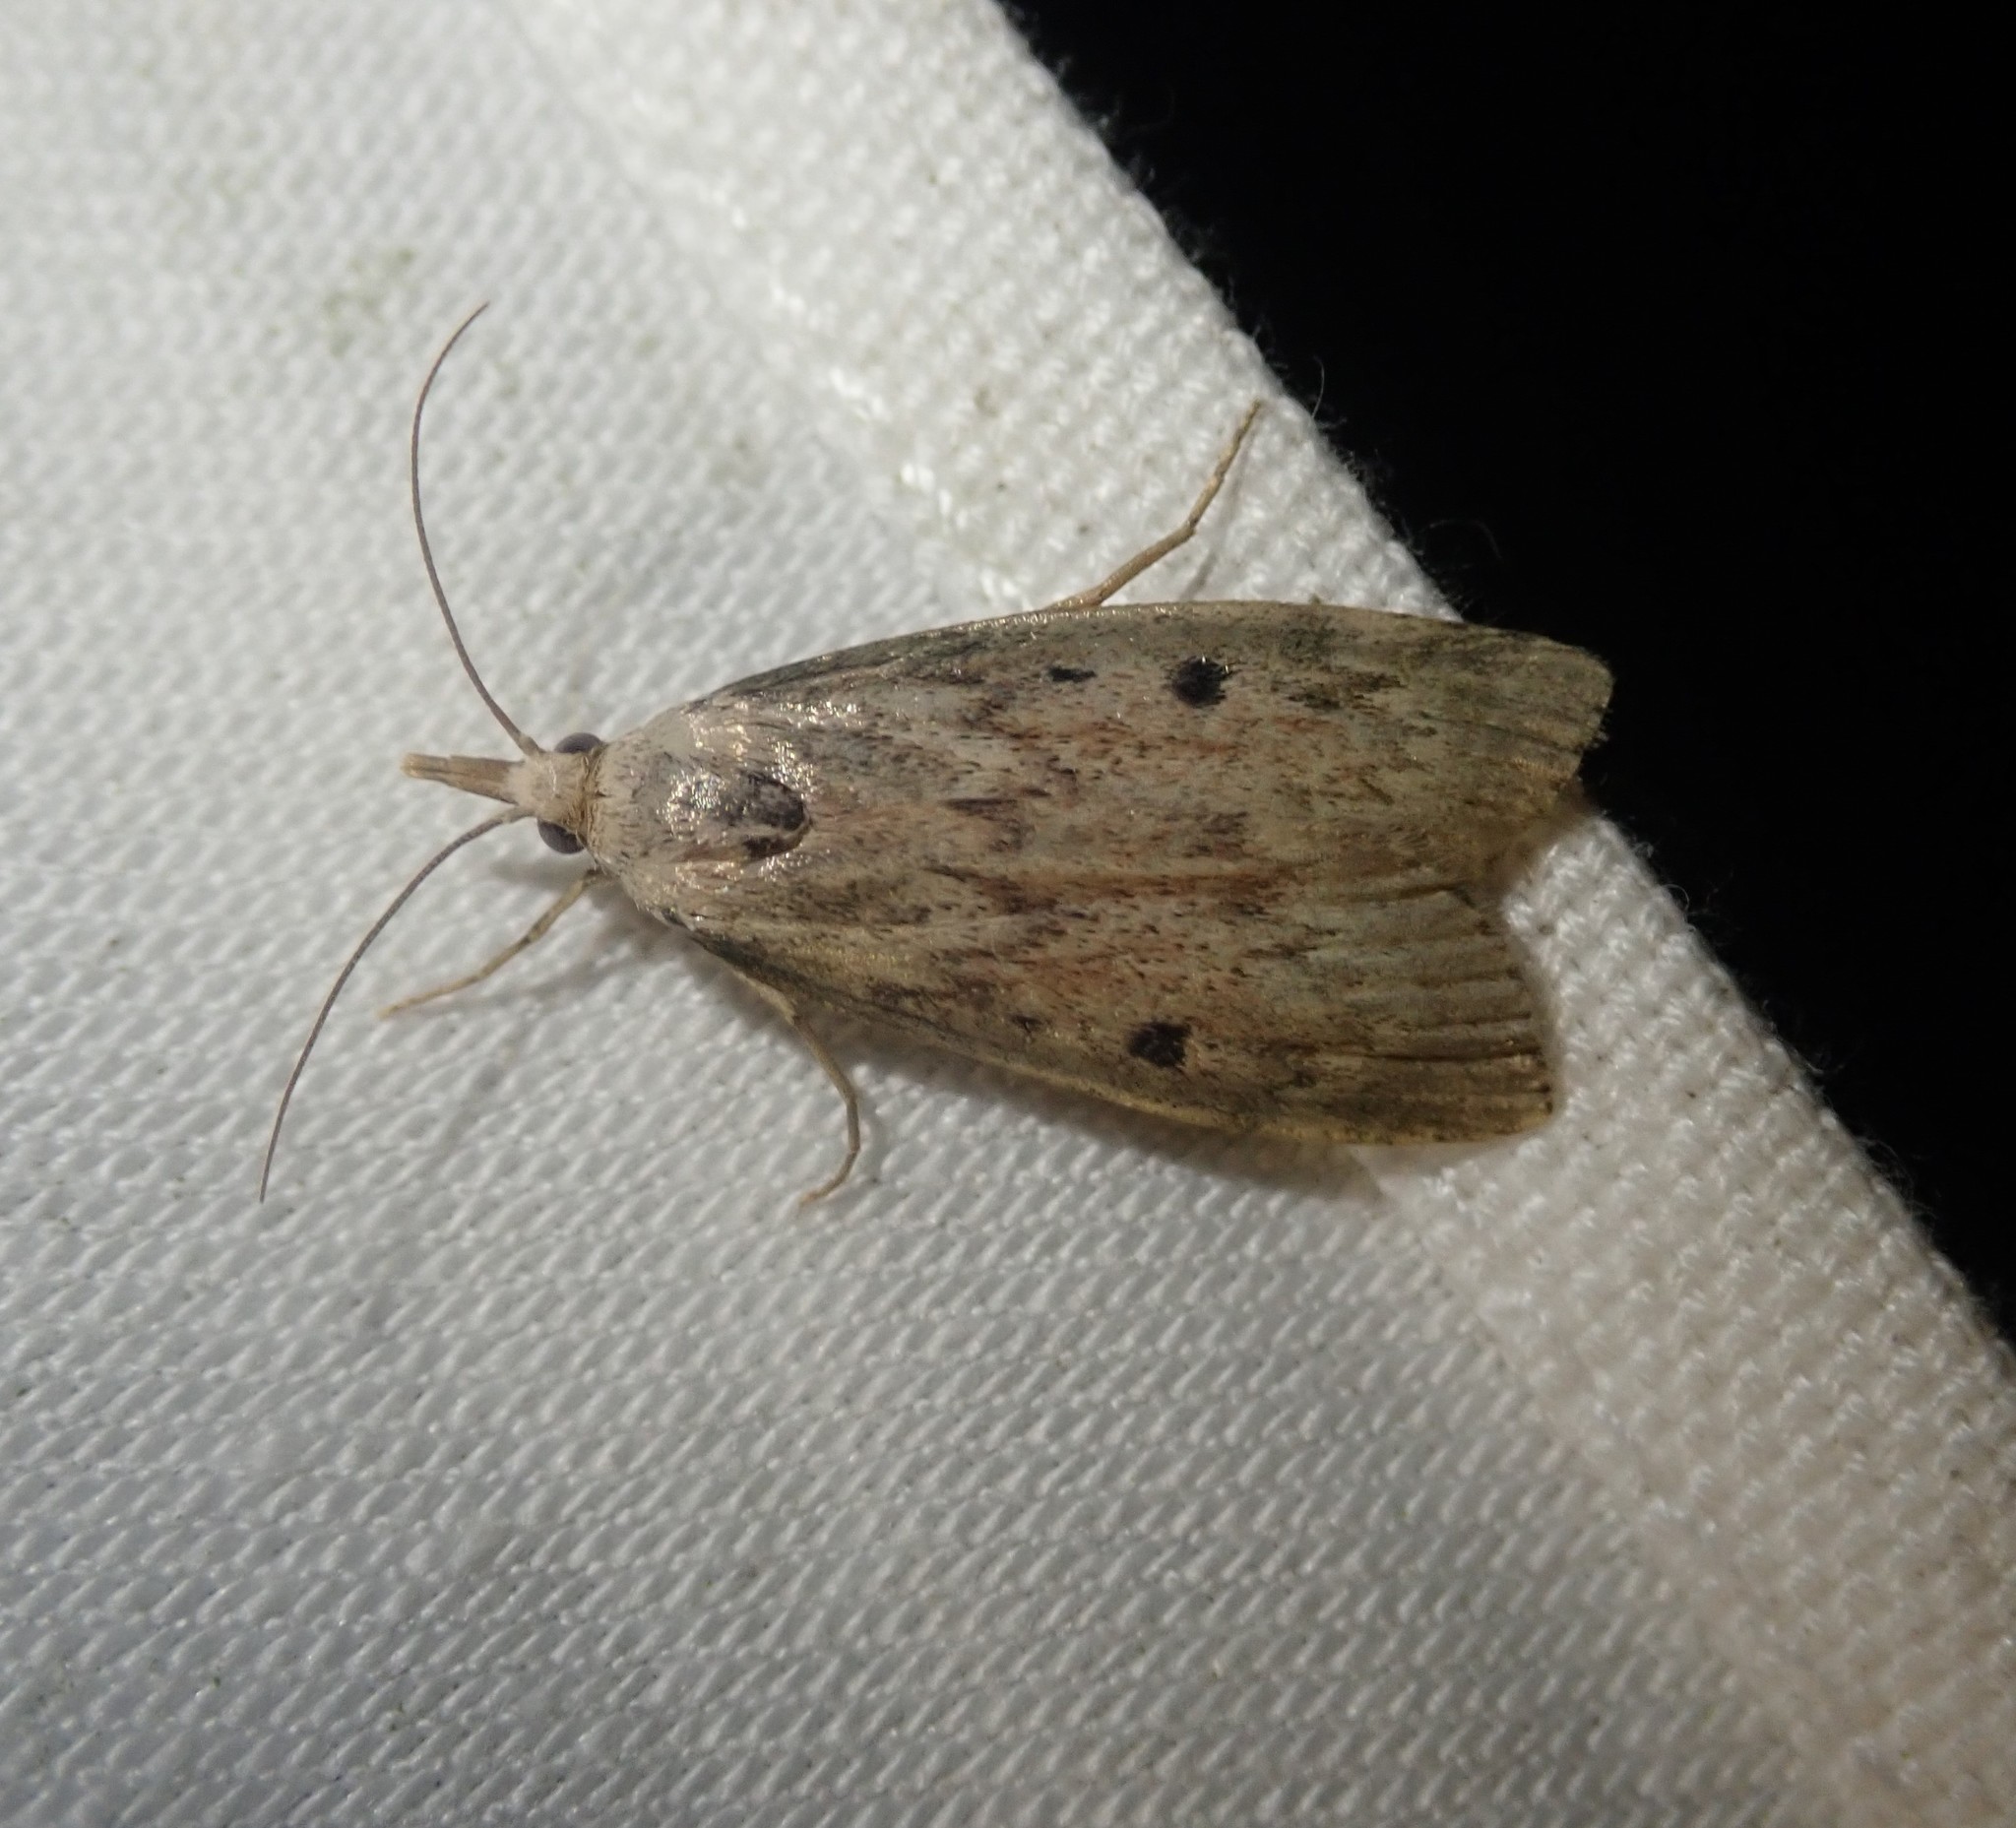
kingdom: Animalia
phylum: Arthropoda
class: Insecta
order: Lepidoptera
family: Pyralidae
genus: Aphomia
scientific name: Aphomia sociella
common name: Bee moth
